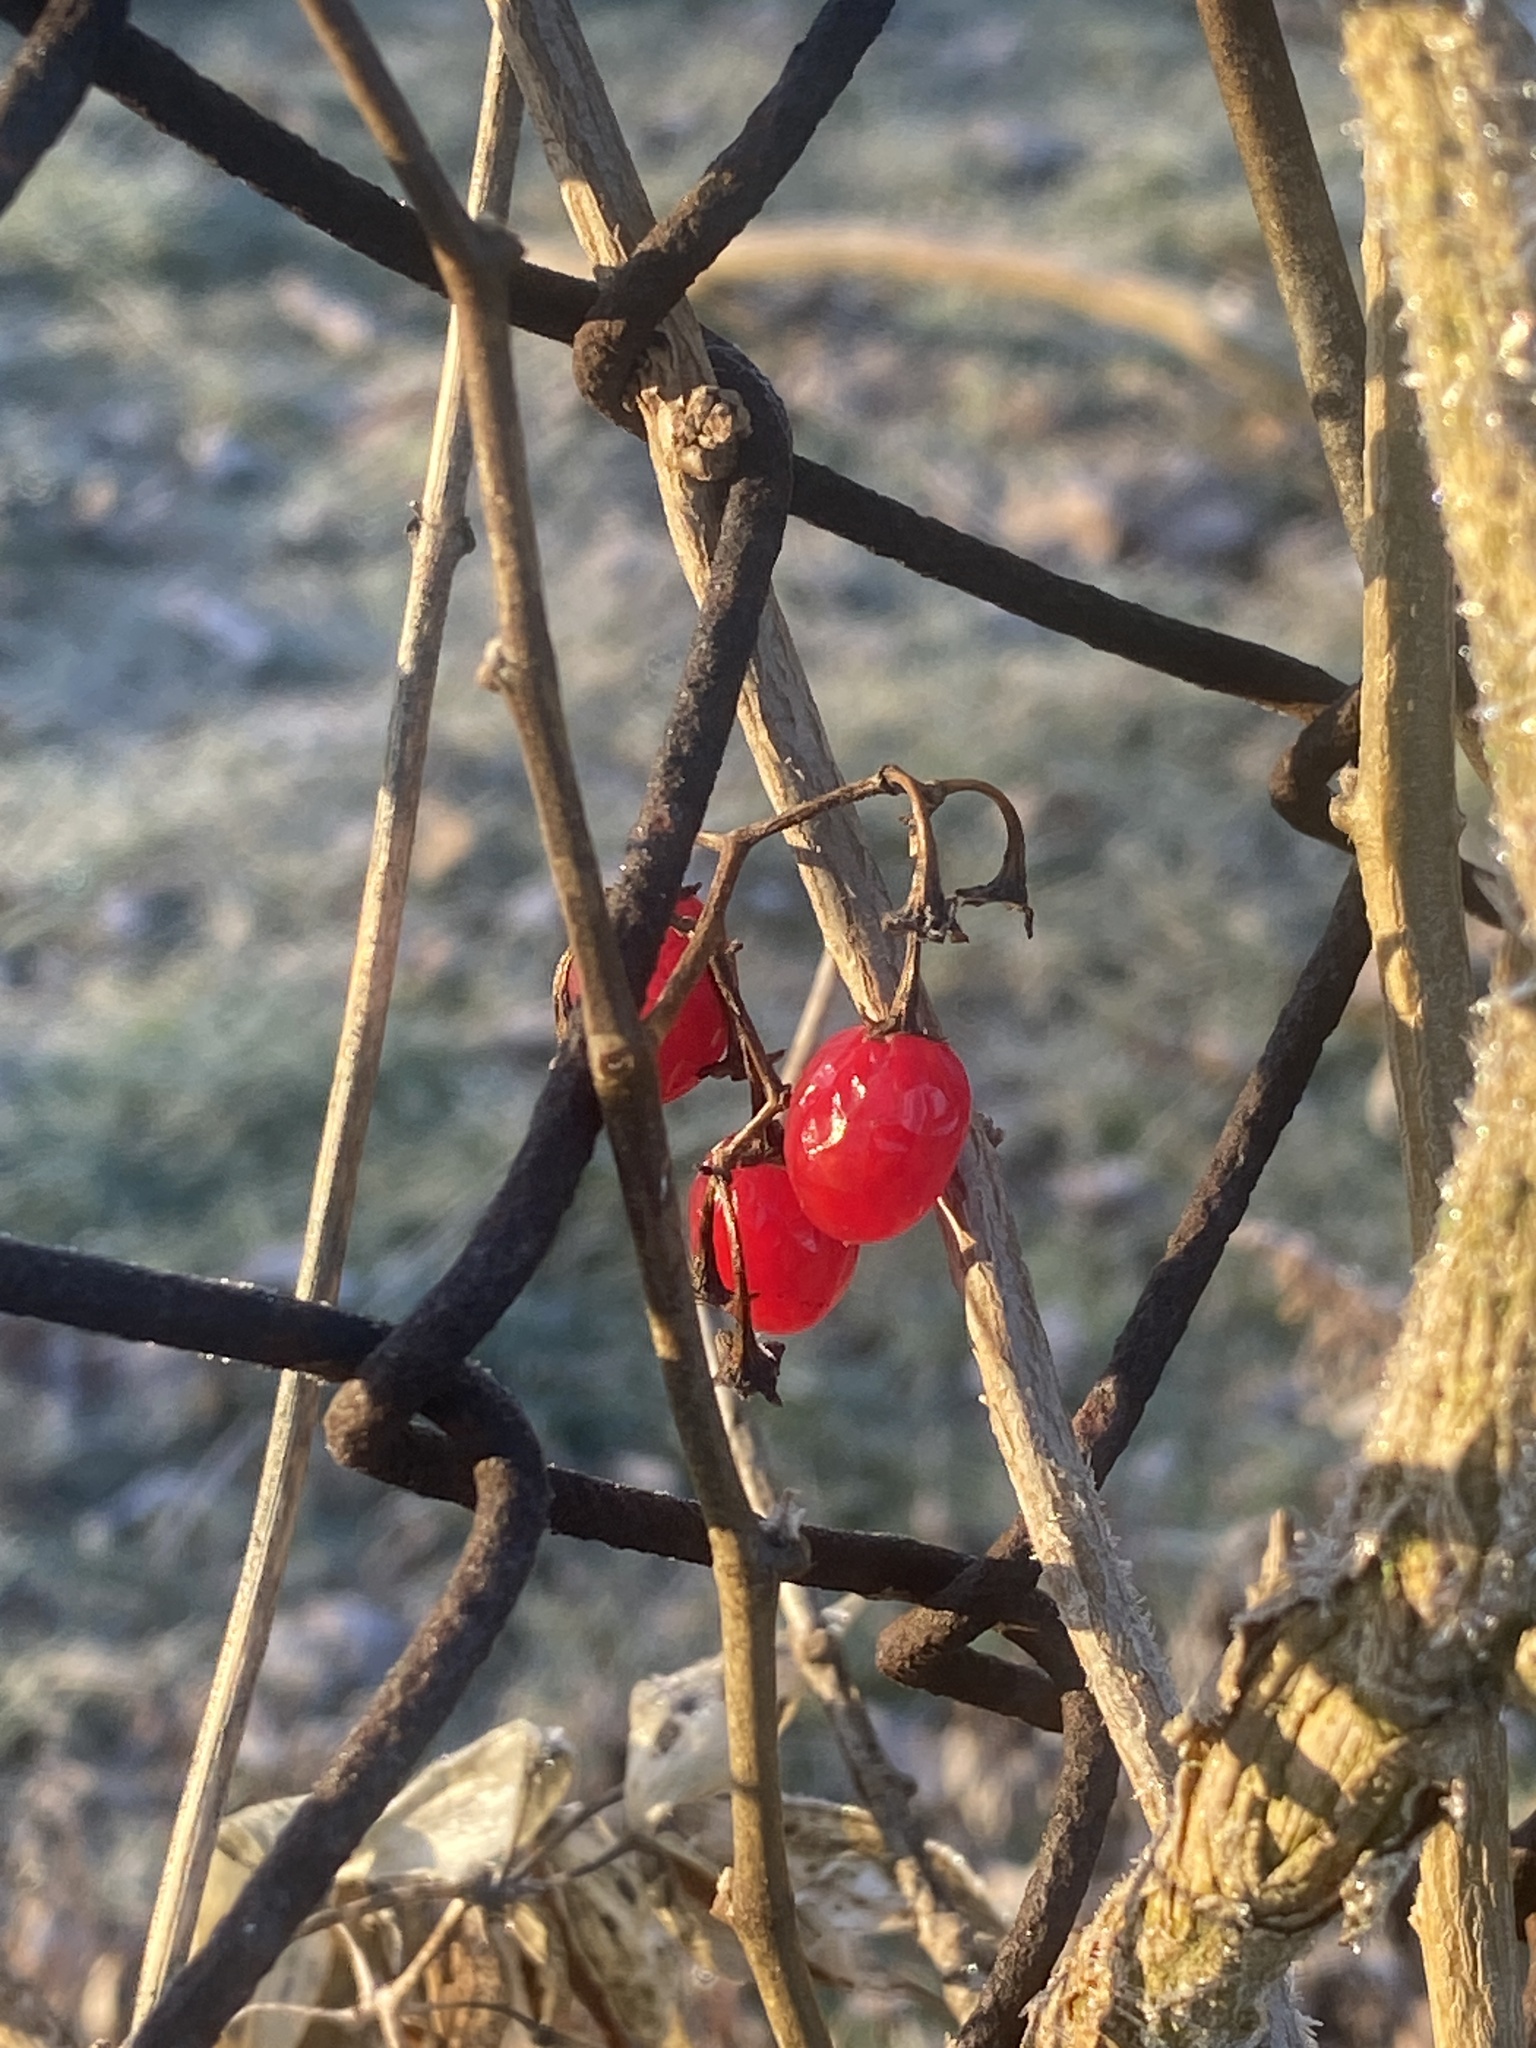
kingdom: Plantae
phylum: Tracheophyta
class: Magnoliopsida
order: Solanales
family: Solanaceae
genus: Solanum
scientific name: Solanum dulcamara
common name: Climbing nightshade
